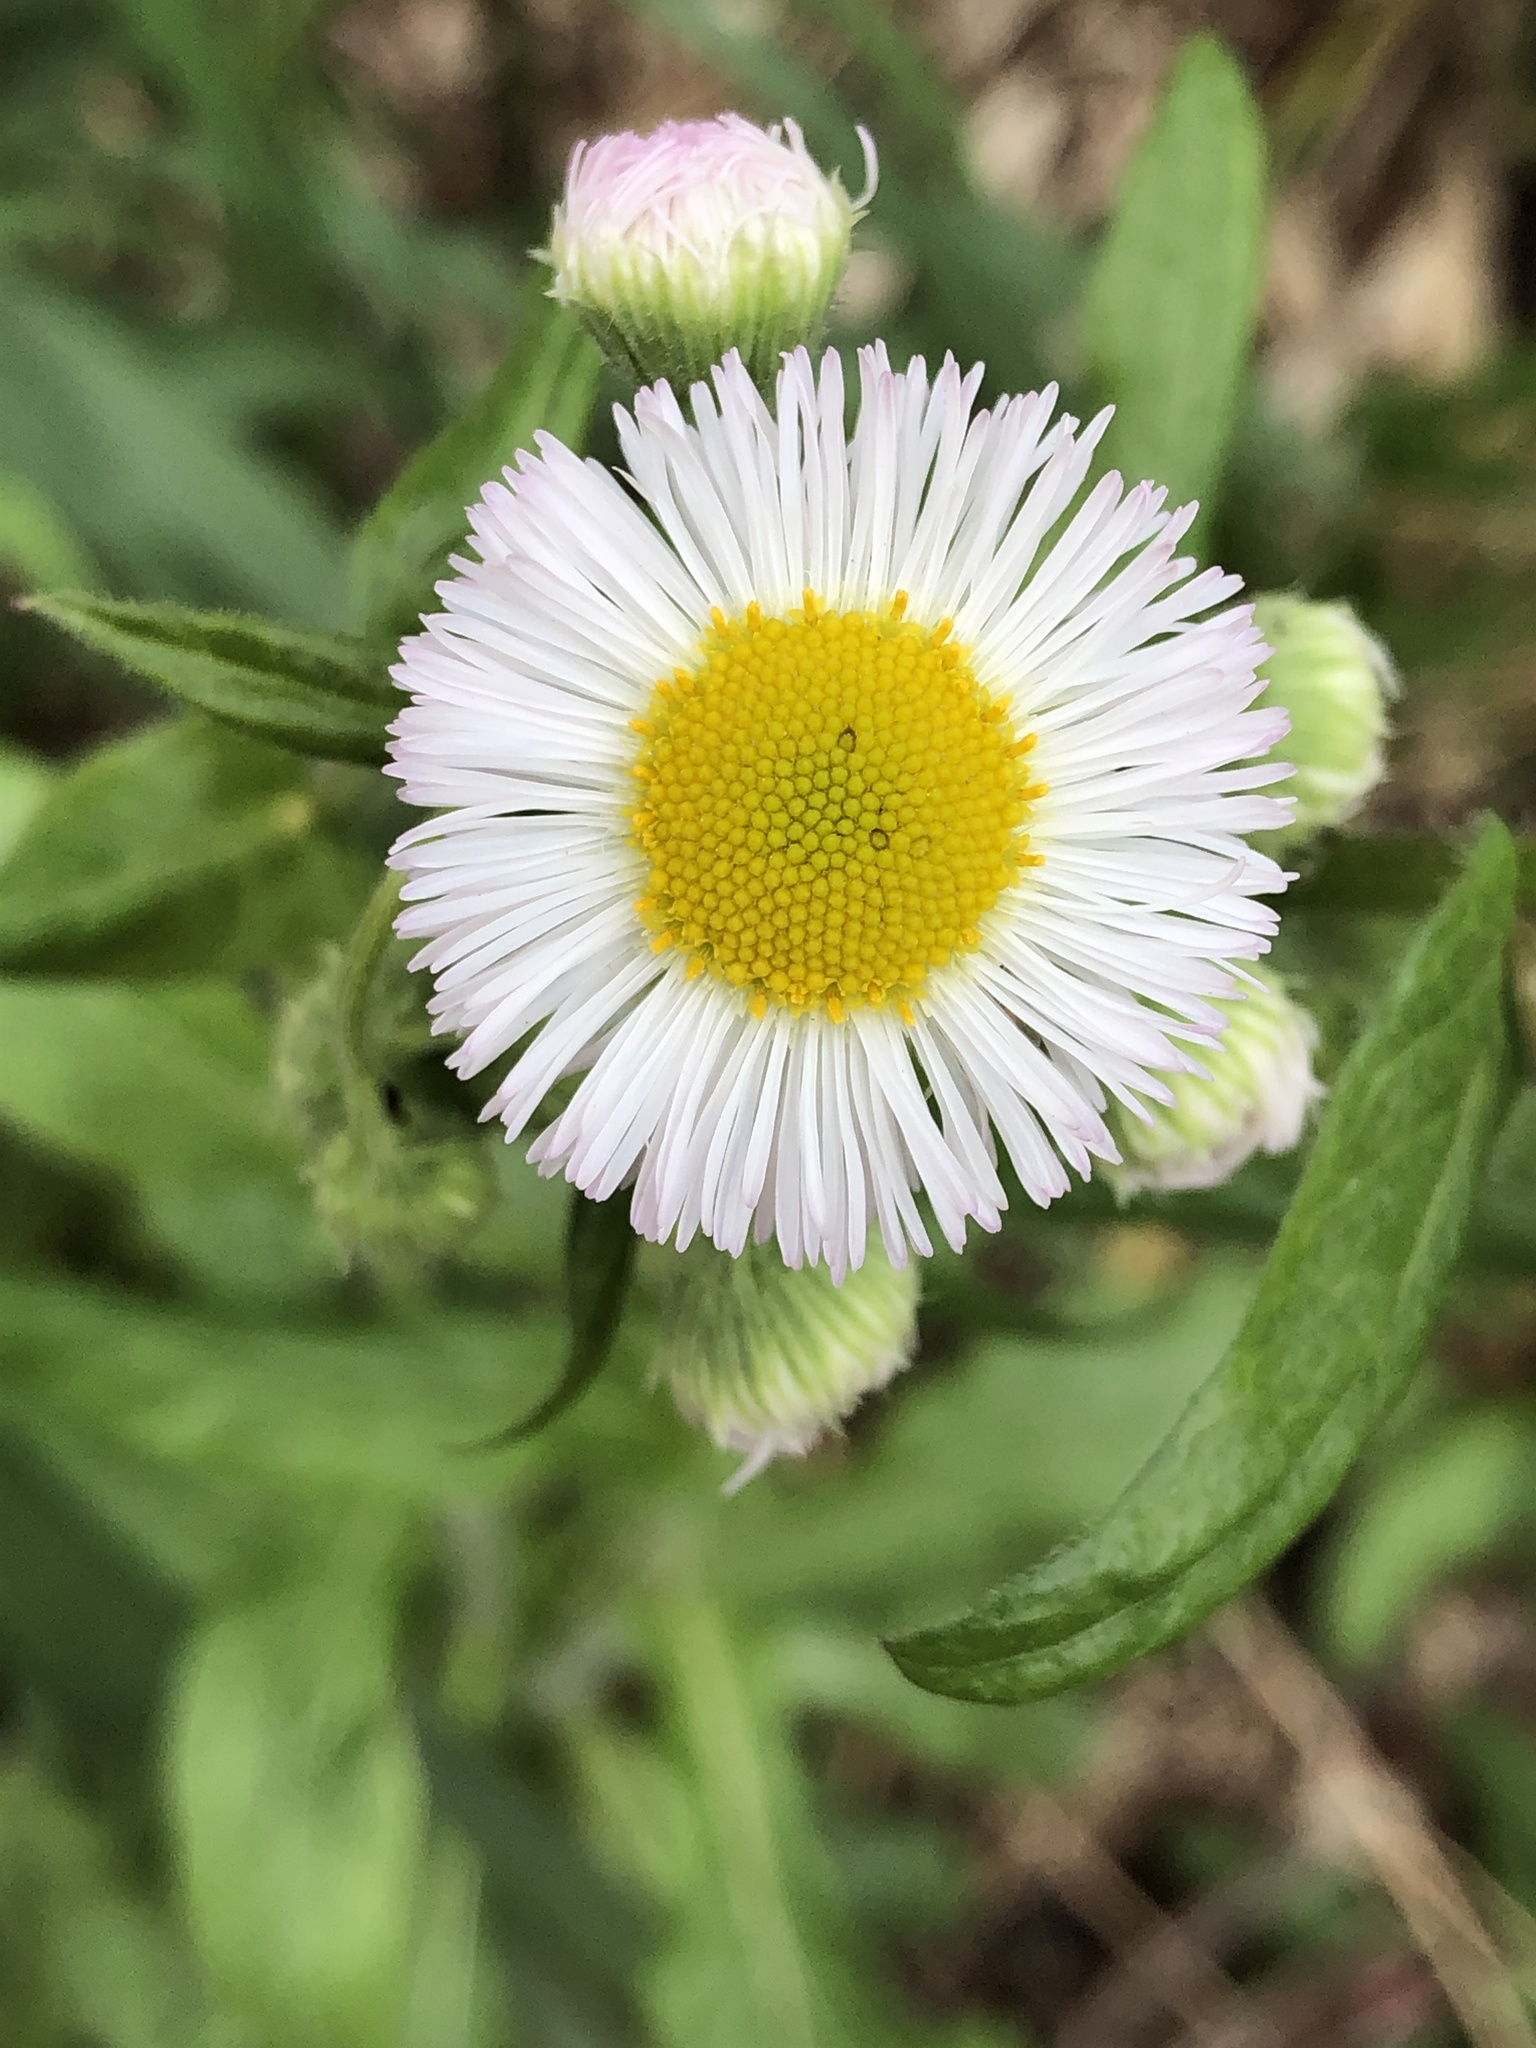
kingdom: Plantae
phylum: Tracheophyta
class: Magnoliopsida
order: Asterales
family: Asteraceae
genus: Erigeron
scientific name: Erigeron annuus
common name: Tall fleabane
